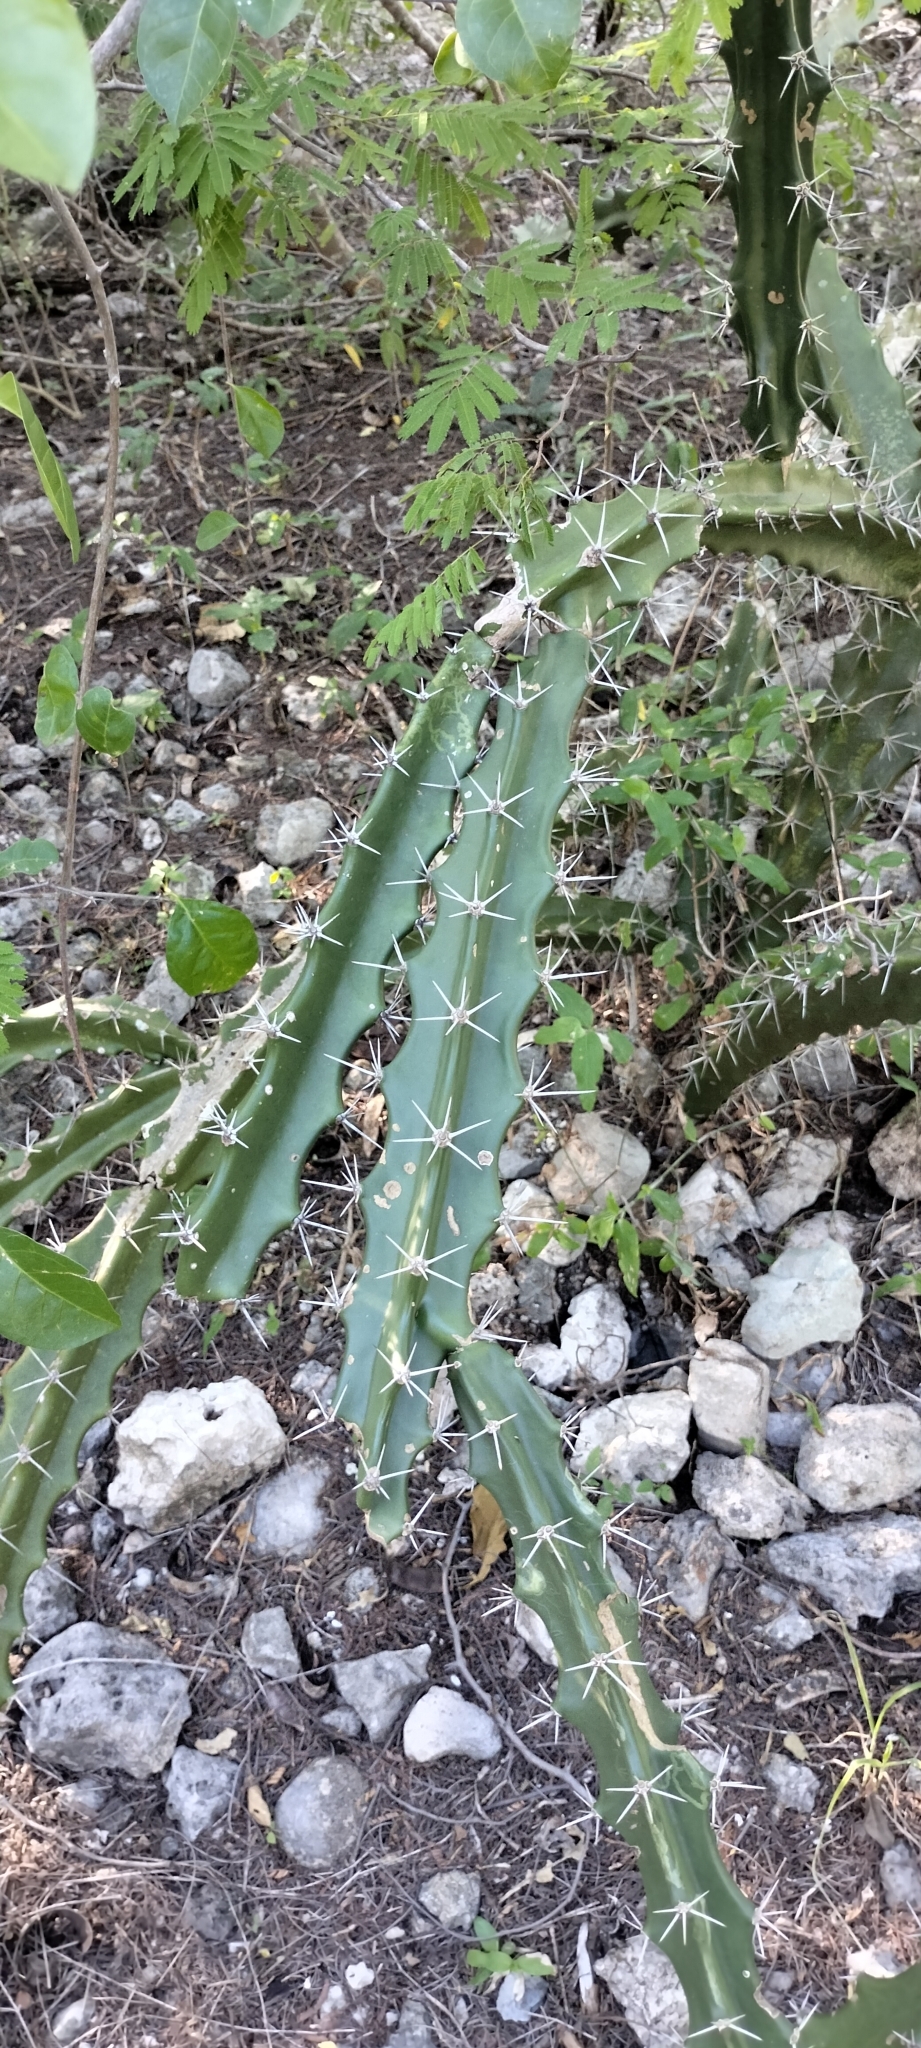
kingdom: Plantae
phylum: Tracheophyta
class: Magnoliopsida
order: Caryophyllales
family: Cactaceae
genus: Acanthocereus
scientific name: Acanthocereus tetragonus
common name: Triangle cactus
